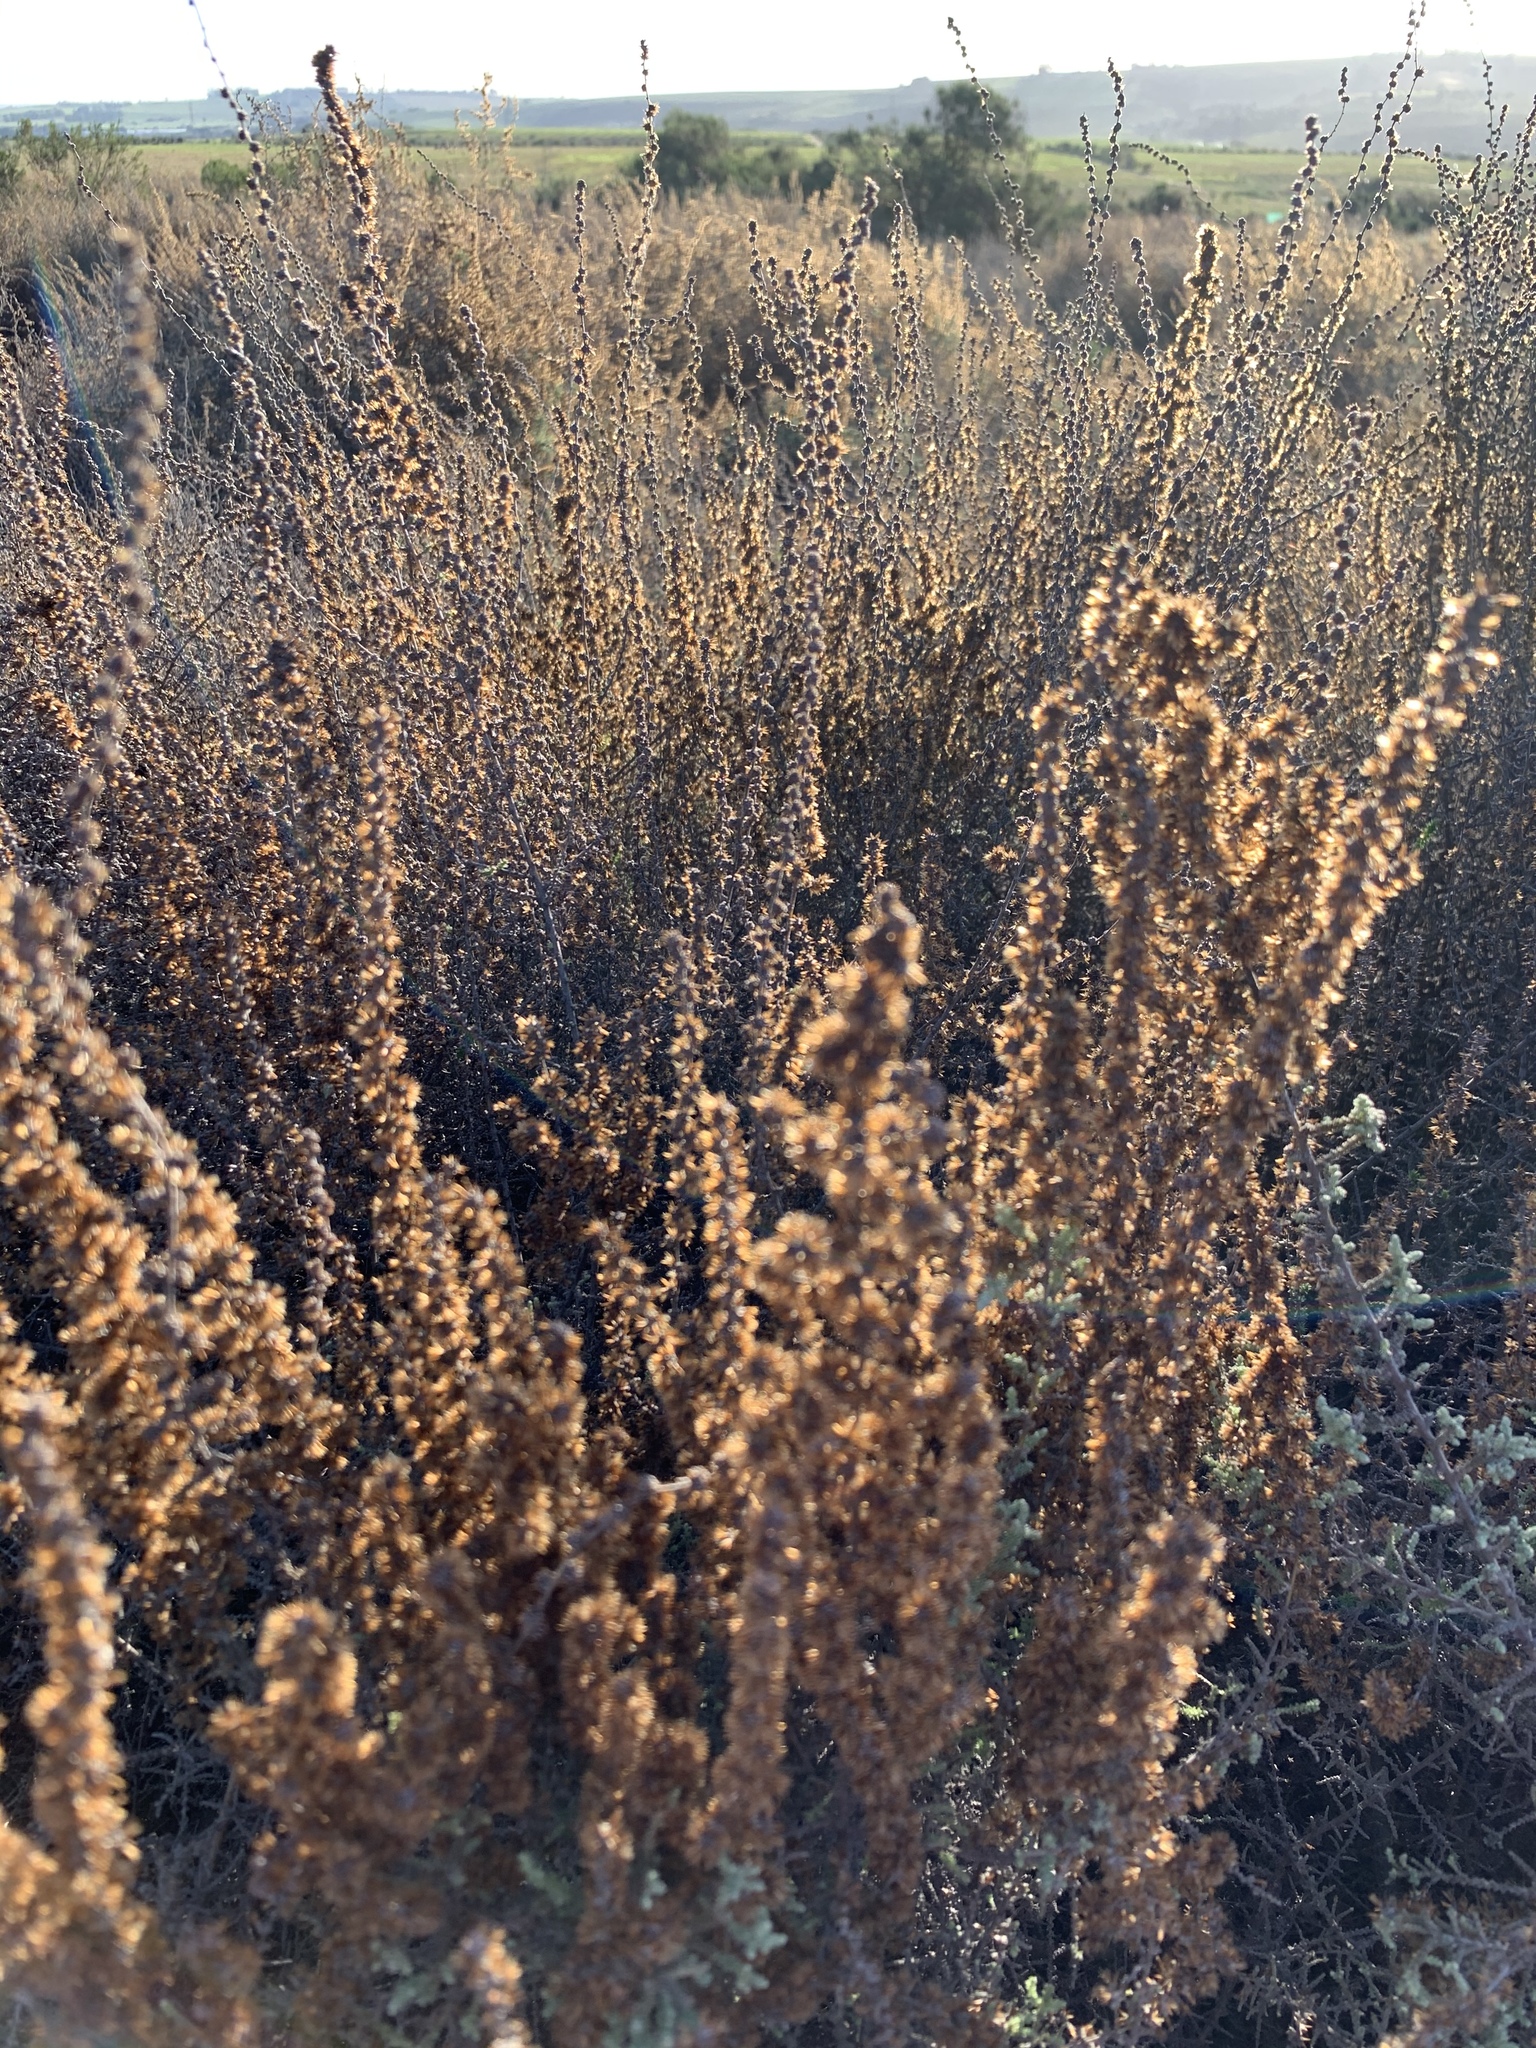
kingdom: Plantae
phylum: Tracheophyta
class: Magnoliopsida
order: Asterales
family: Asteraceae
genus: Seriphium
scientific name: Seriphium plumosum
